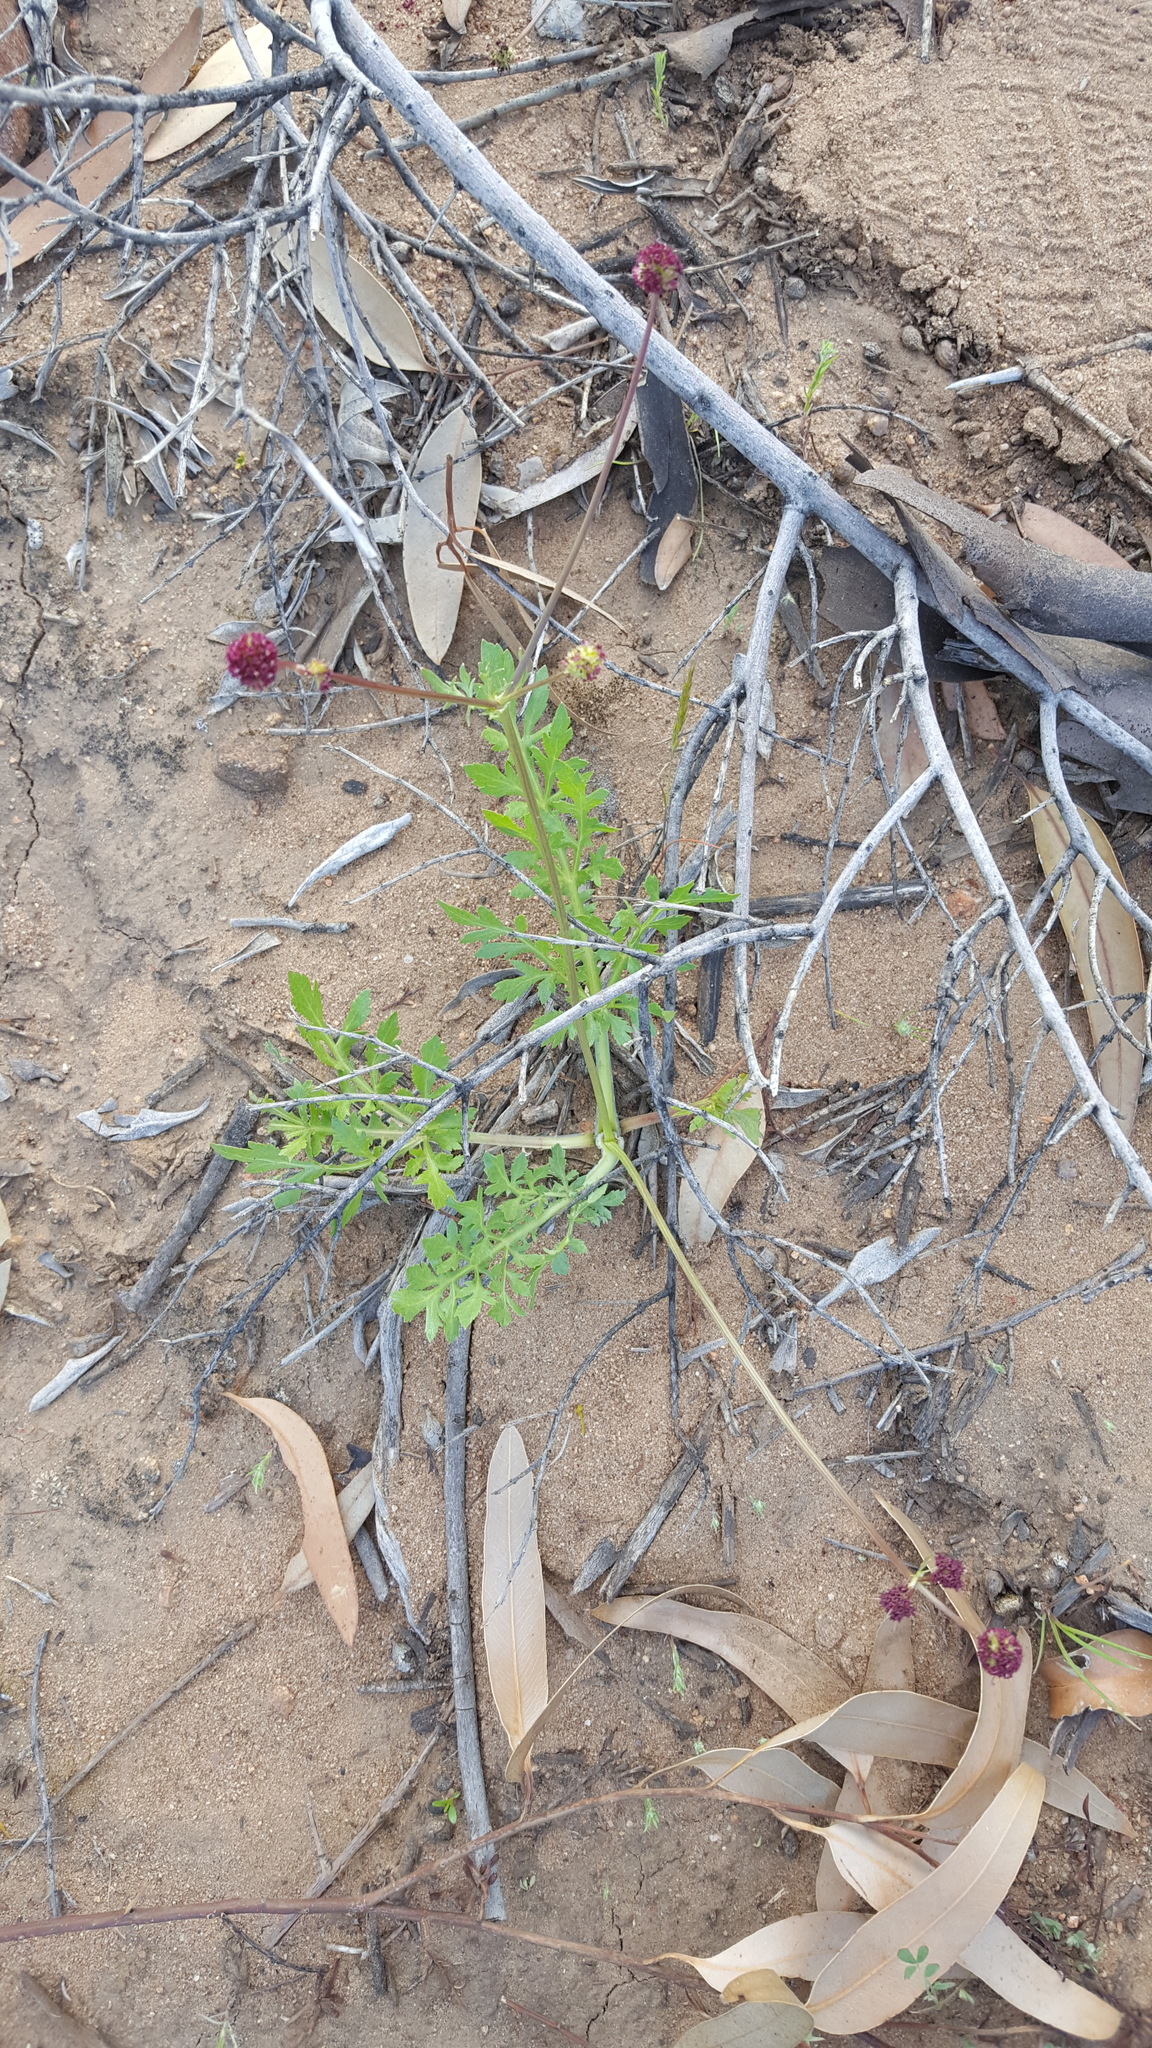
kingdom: Plantae
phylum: Tracheophyta
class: Magnoliopsida
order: Apiales
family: Apiaceae
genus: Sanicula
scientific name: Sanicula bipinnatifida
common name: Shoe-buttons
